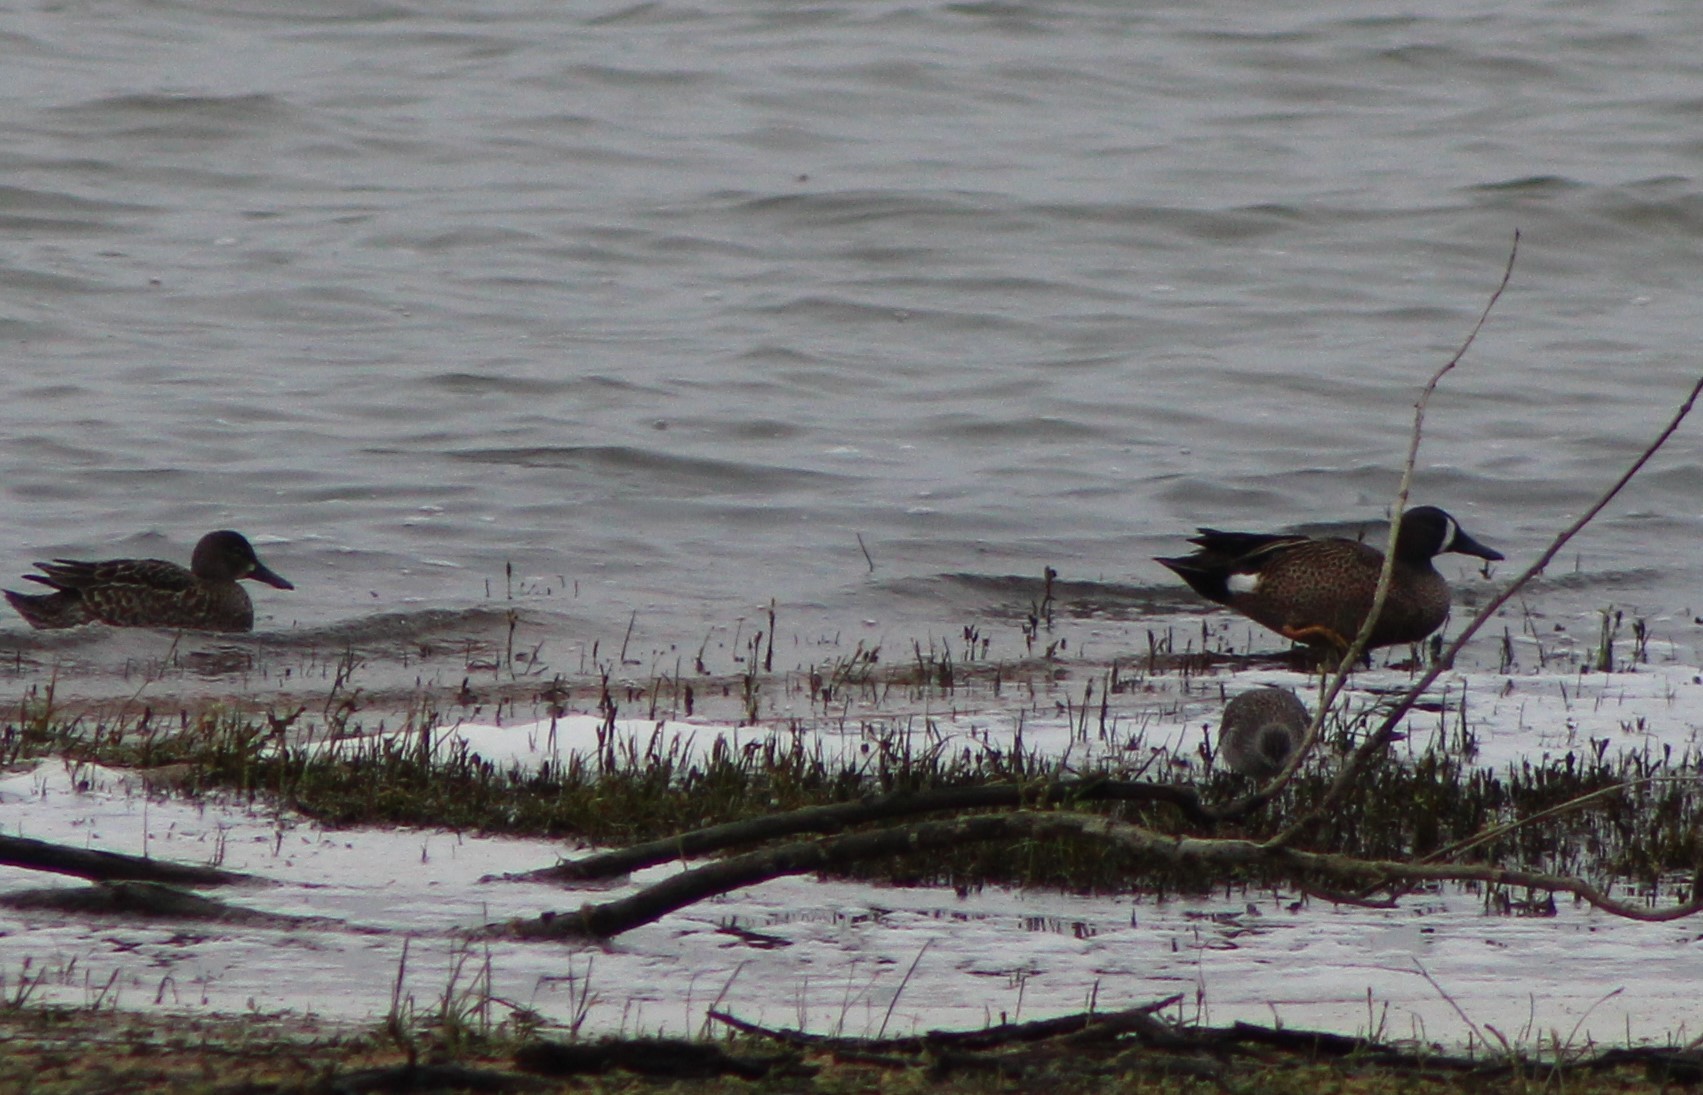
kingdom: Animalia
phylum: Chordata
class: Aves
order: Anseriformes
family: Anatidae
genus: Spatula
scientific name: Spatula discors
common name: Blue-winged teal
